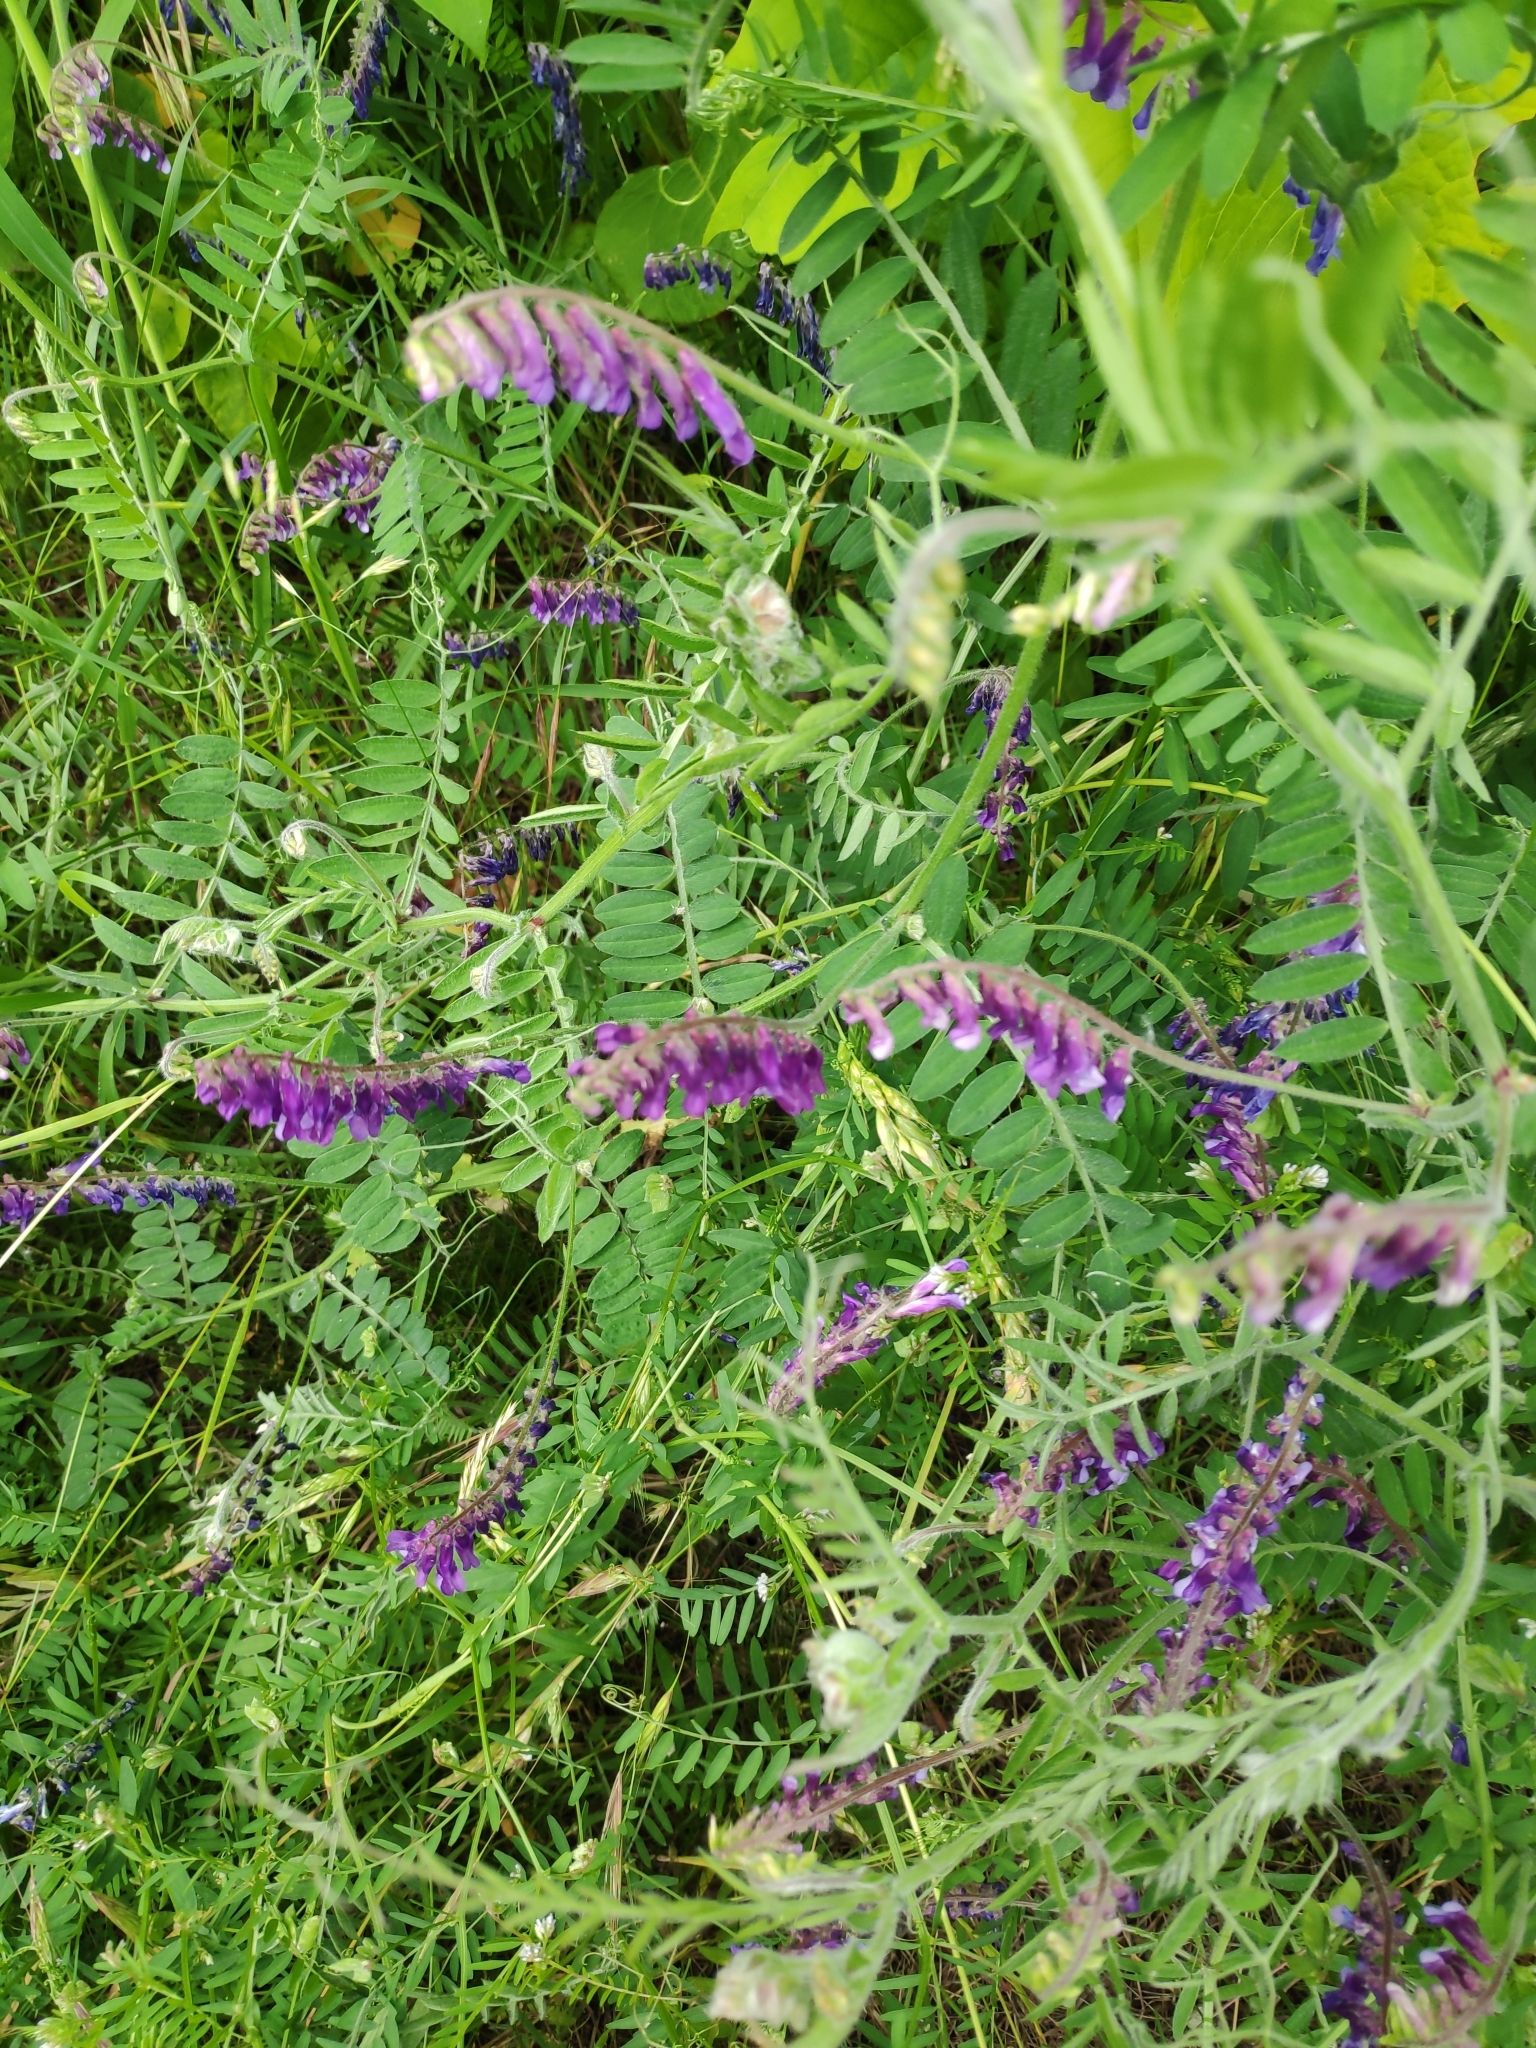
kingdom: Plantae
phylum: Tracheophyta
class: Magnoliopsida
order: Fabales
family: Fabaceae
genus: Vicia
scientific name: Vicia villosa
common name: Fodder vetch
